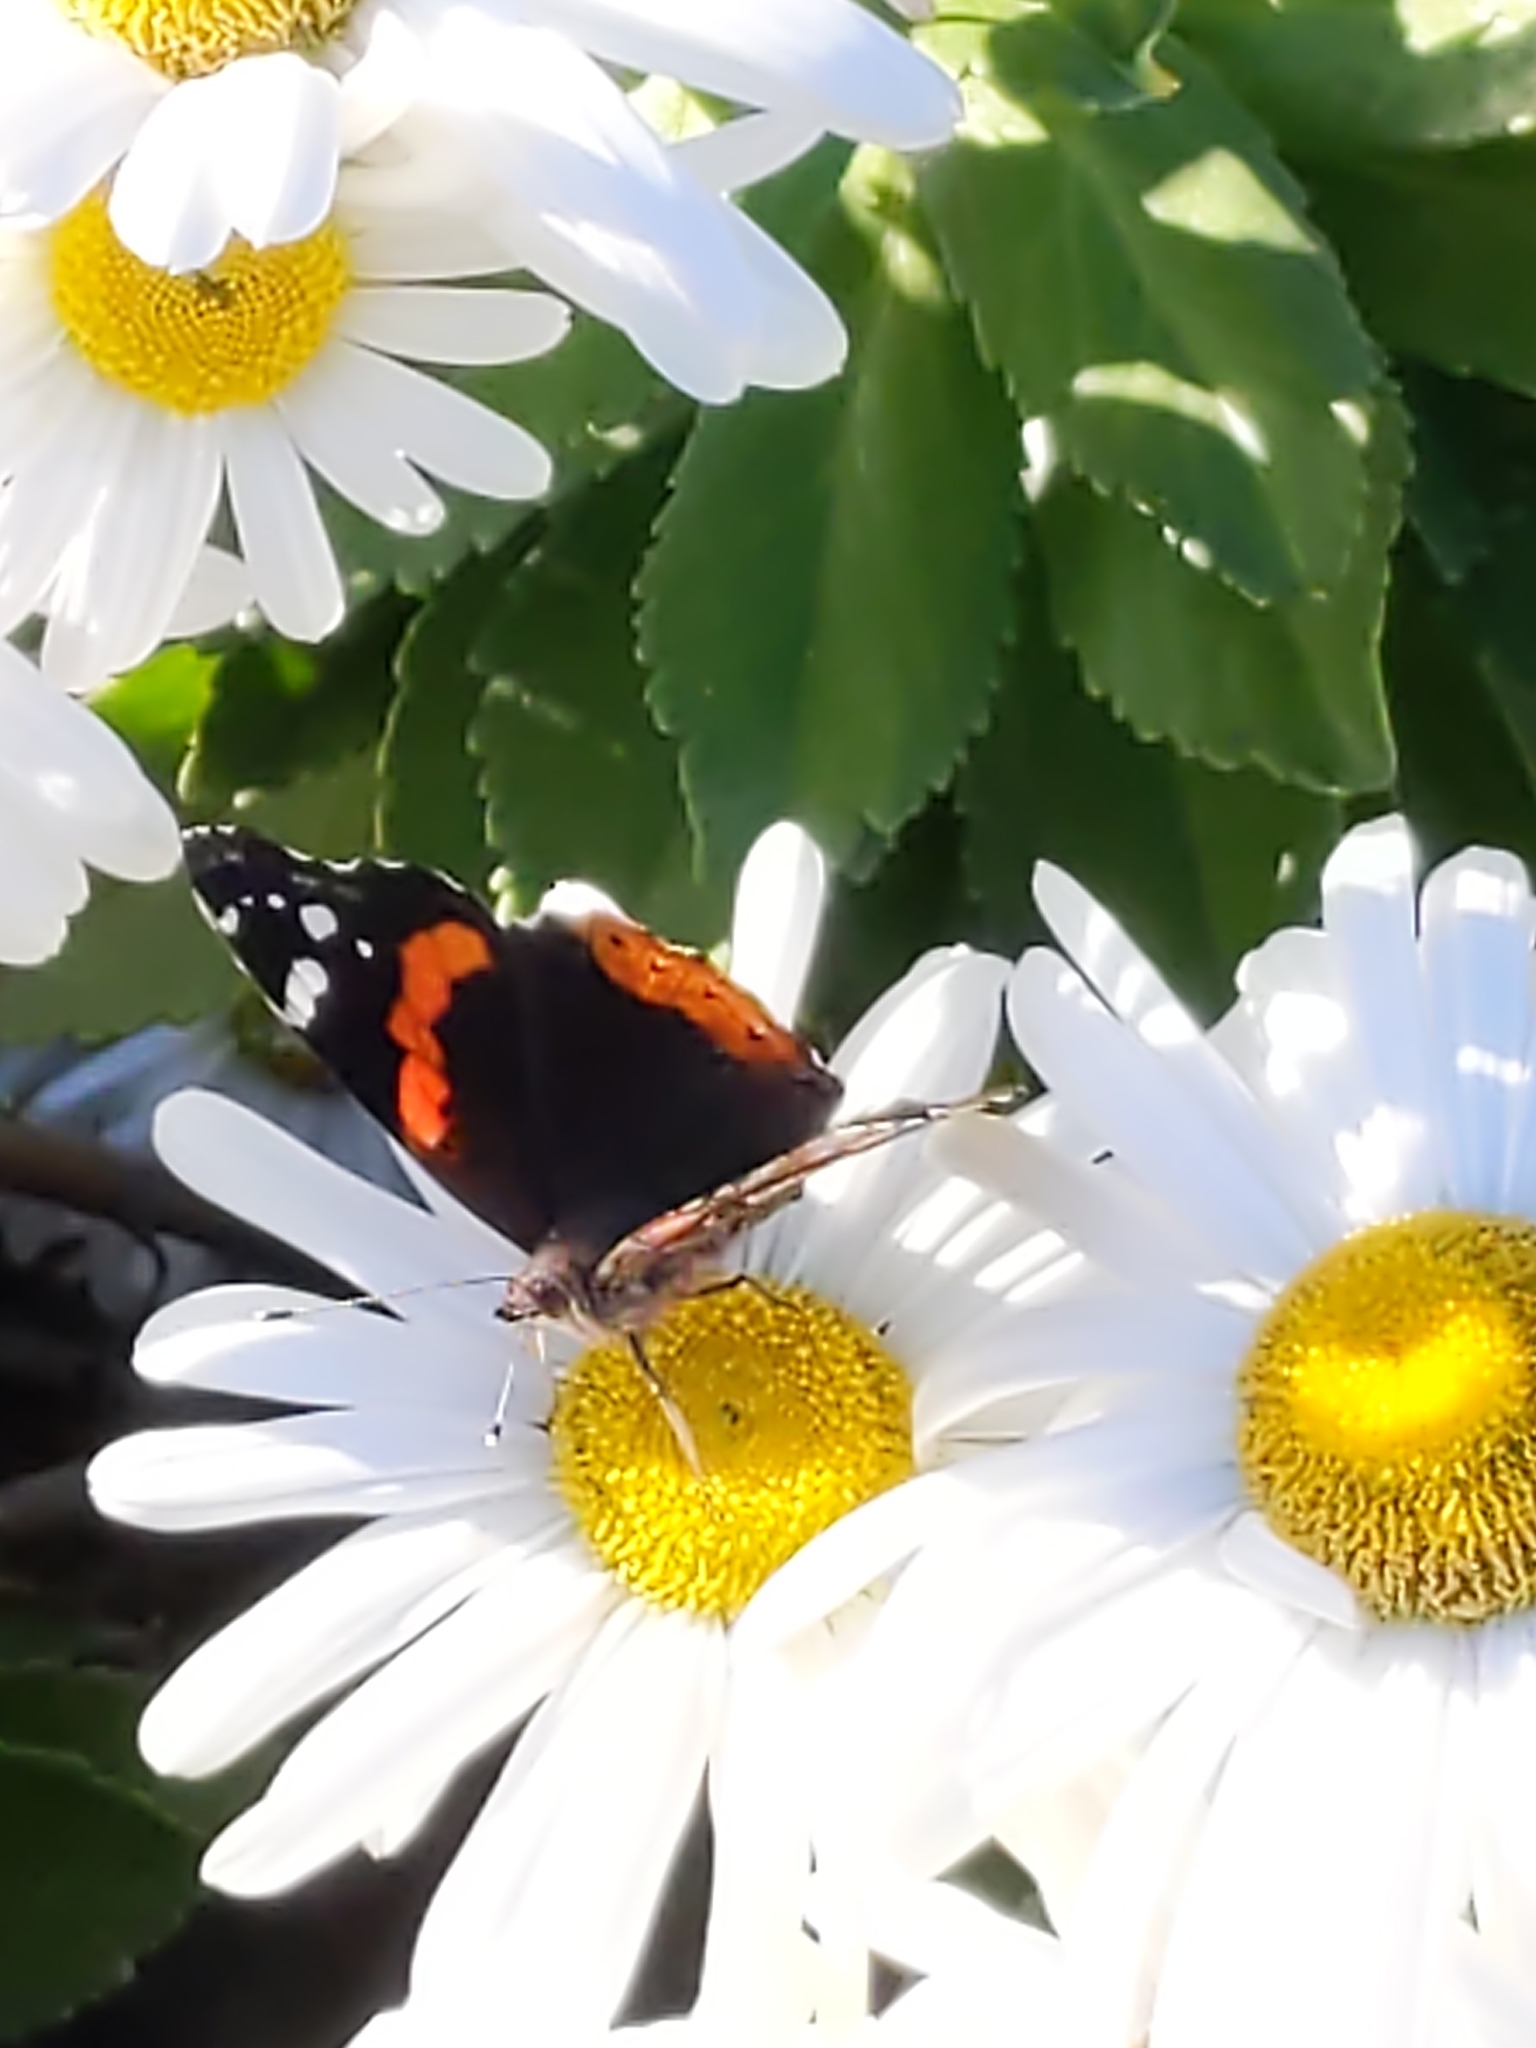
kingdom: Animalia
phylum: Arthropoda
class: Insecta
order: Lepidoptera
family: Nymphalidae
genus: Vanessa
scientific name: Vanessa atalanta
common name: Red admiral
